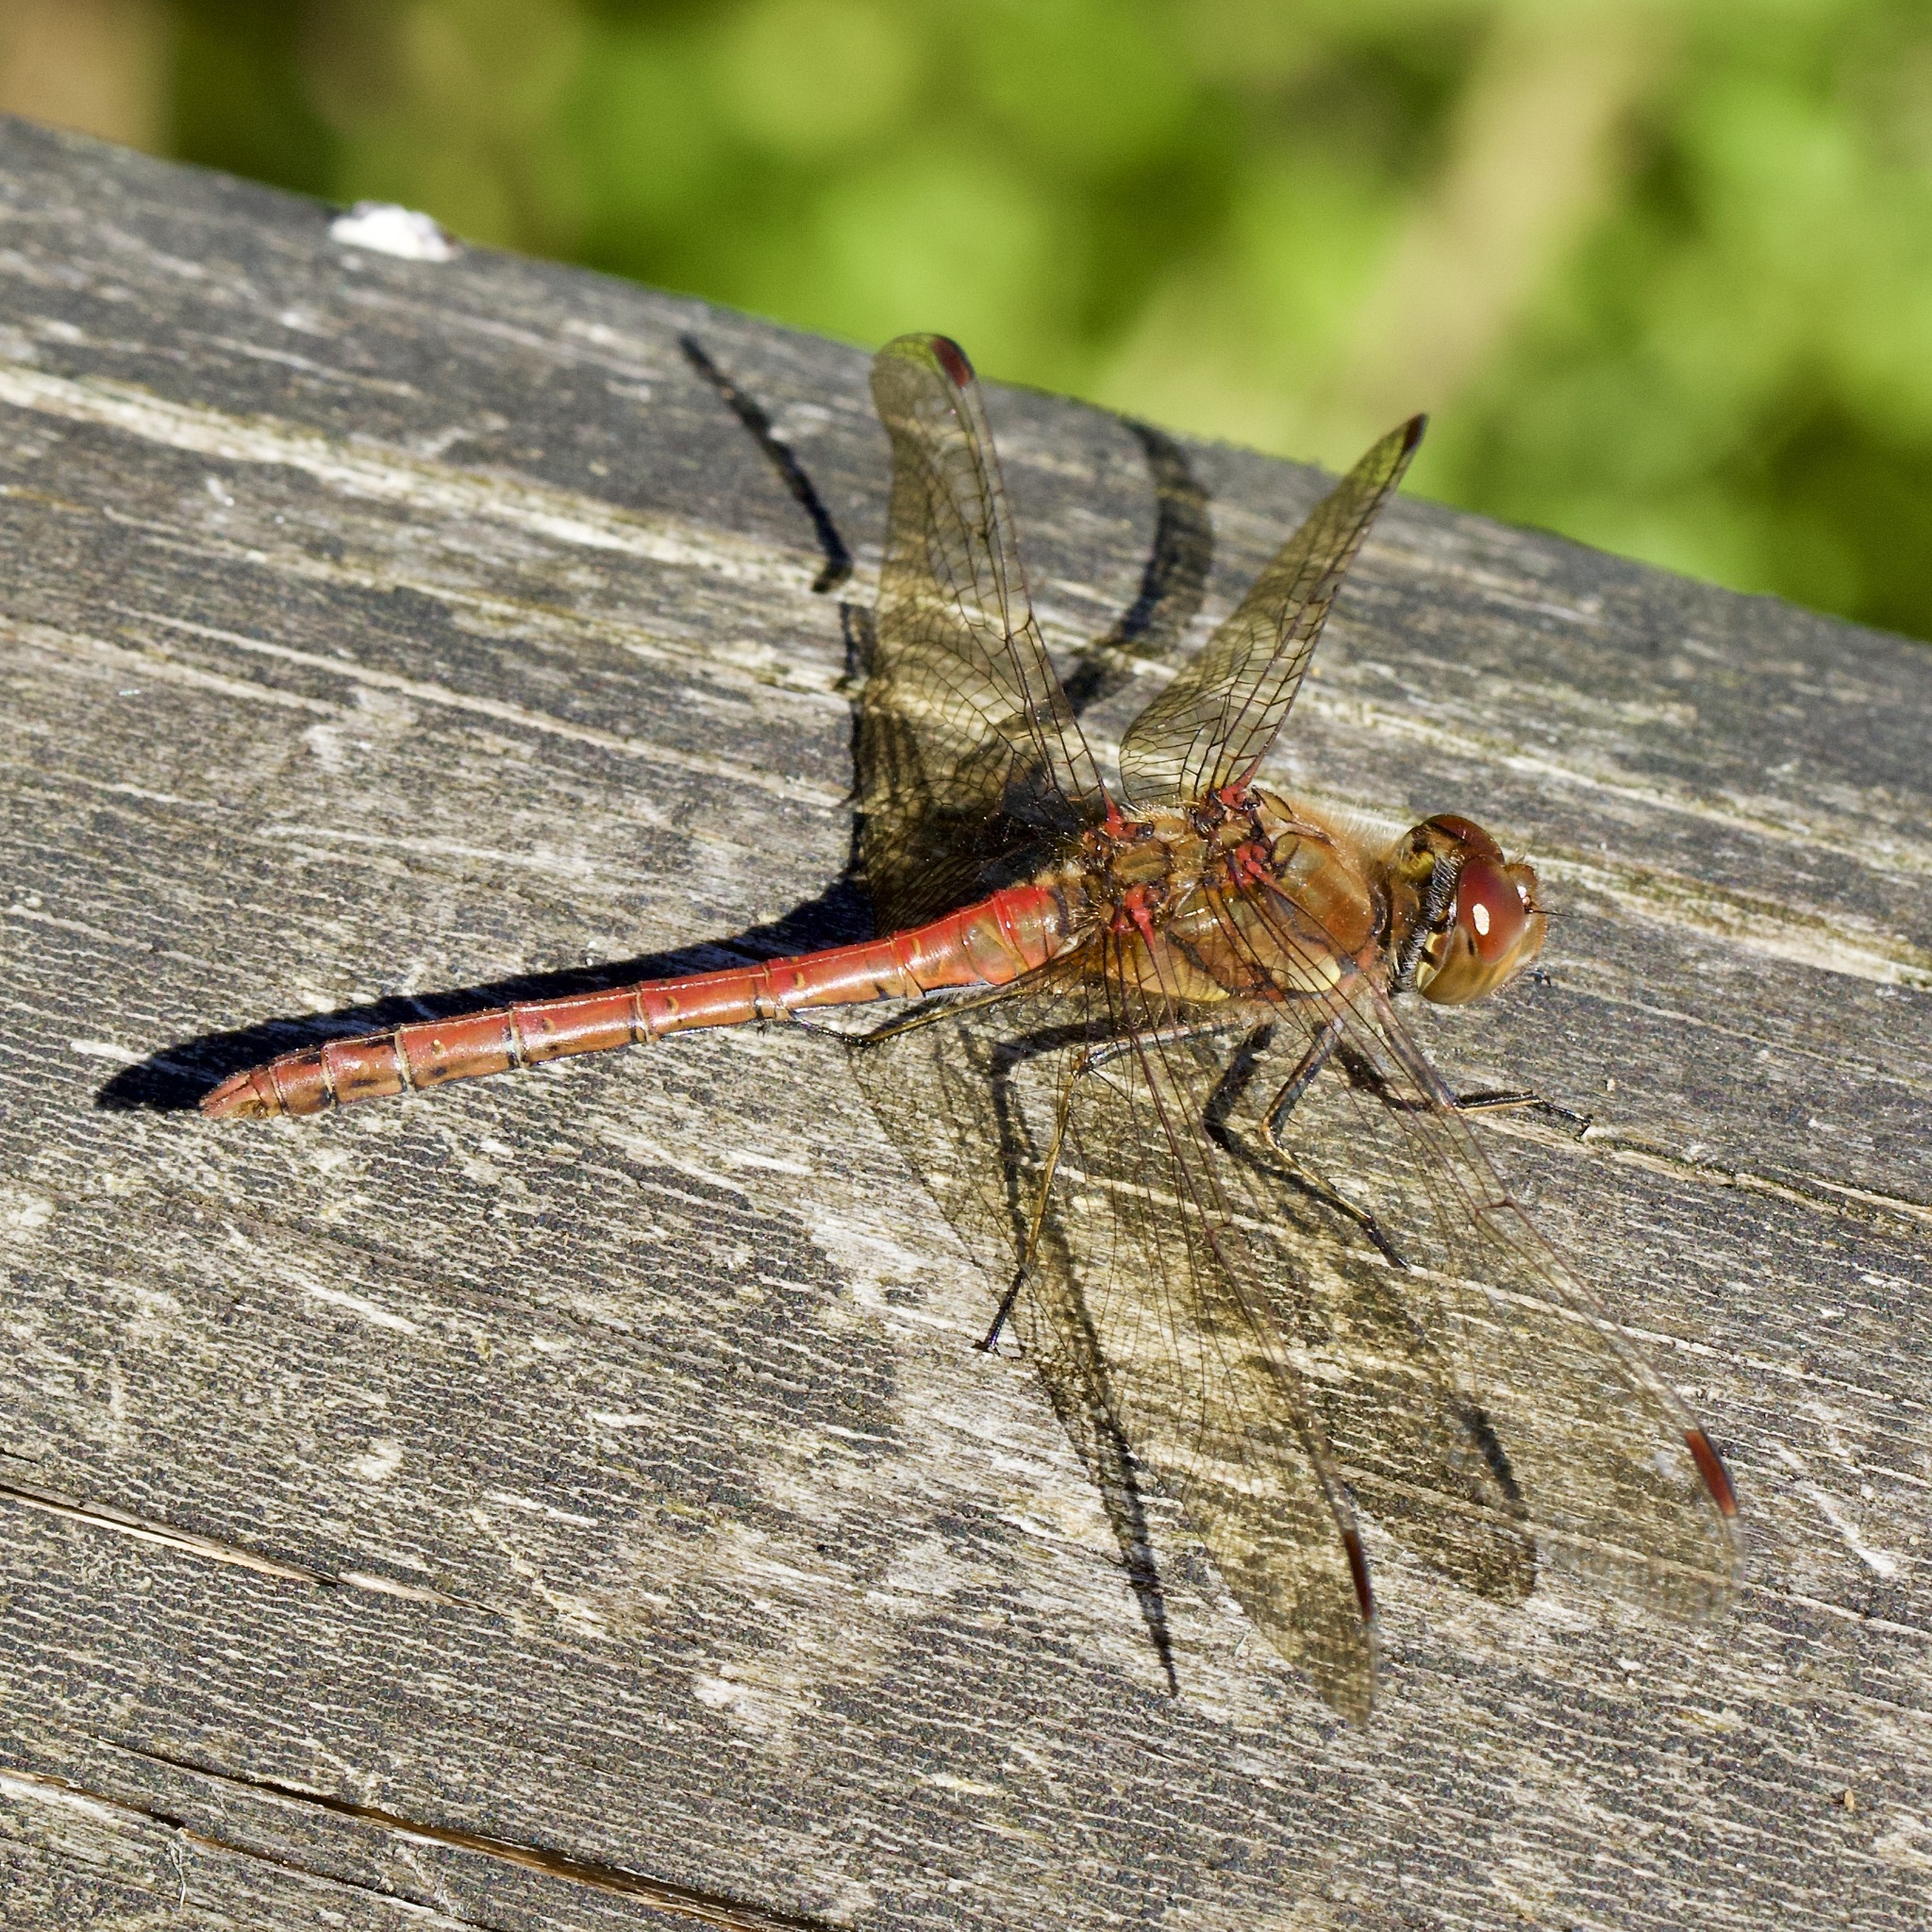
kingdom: Animalia
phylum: Arthropoda
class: Insecta
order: Odonata
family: Libellulidae
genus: Sympetrum
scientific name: Sympetrum striolatum
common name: Common darter
